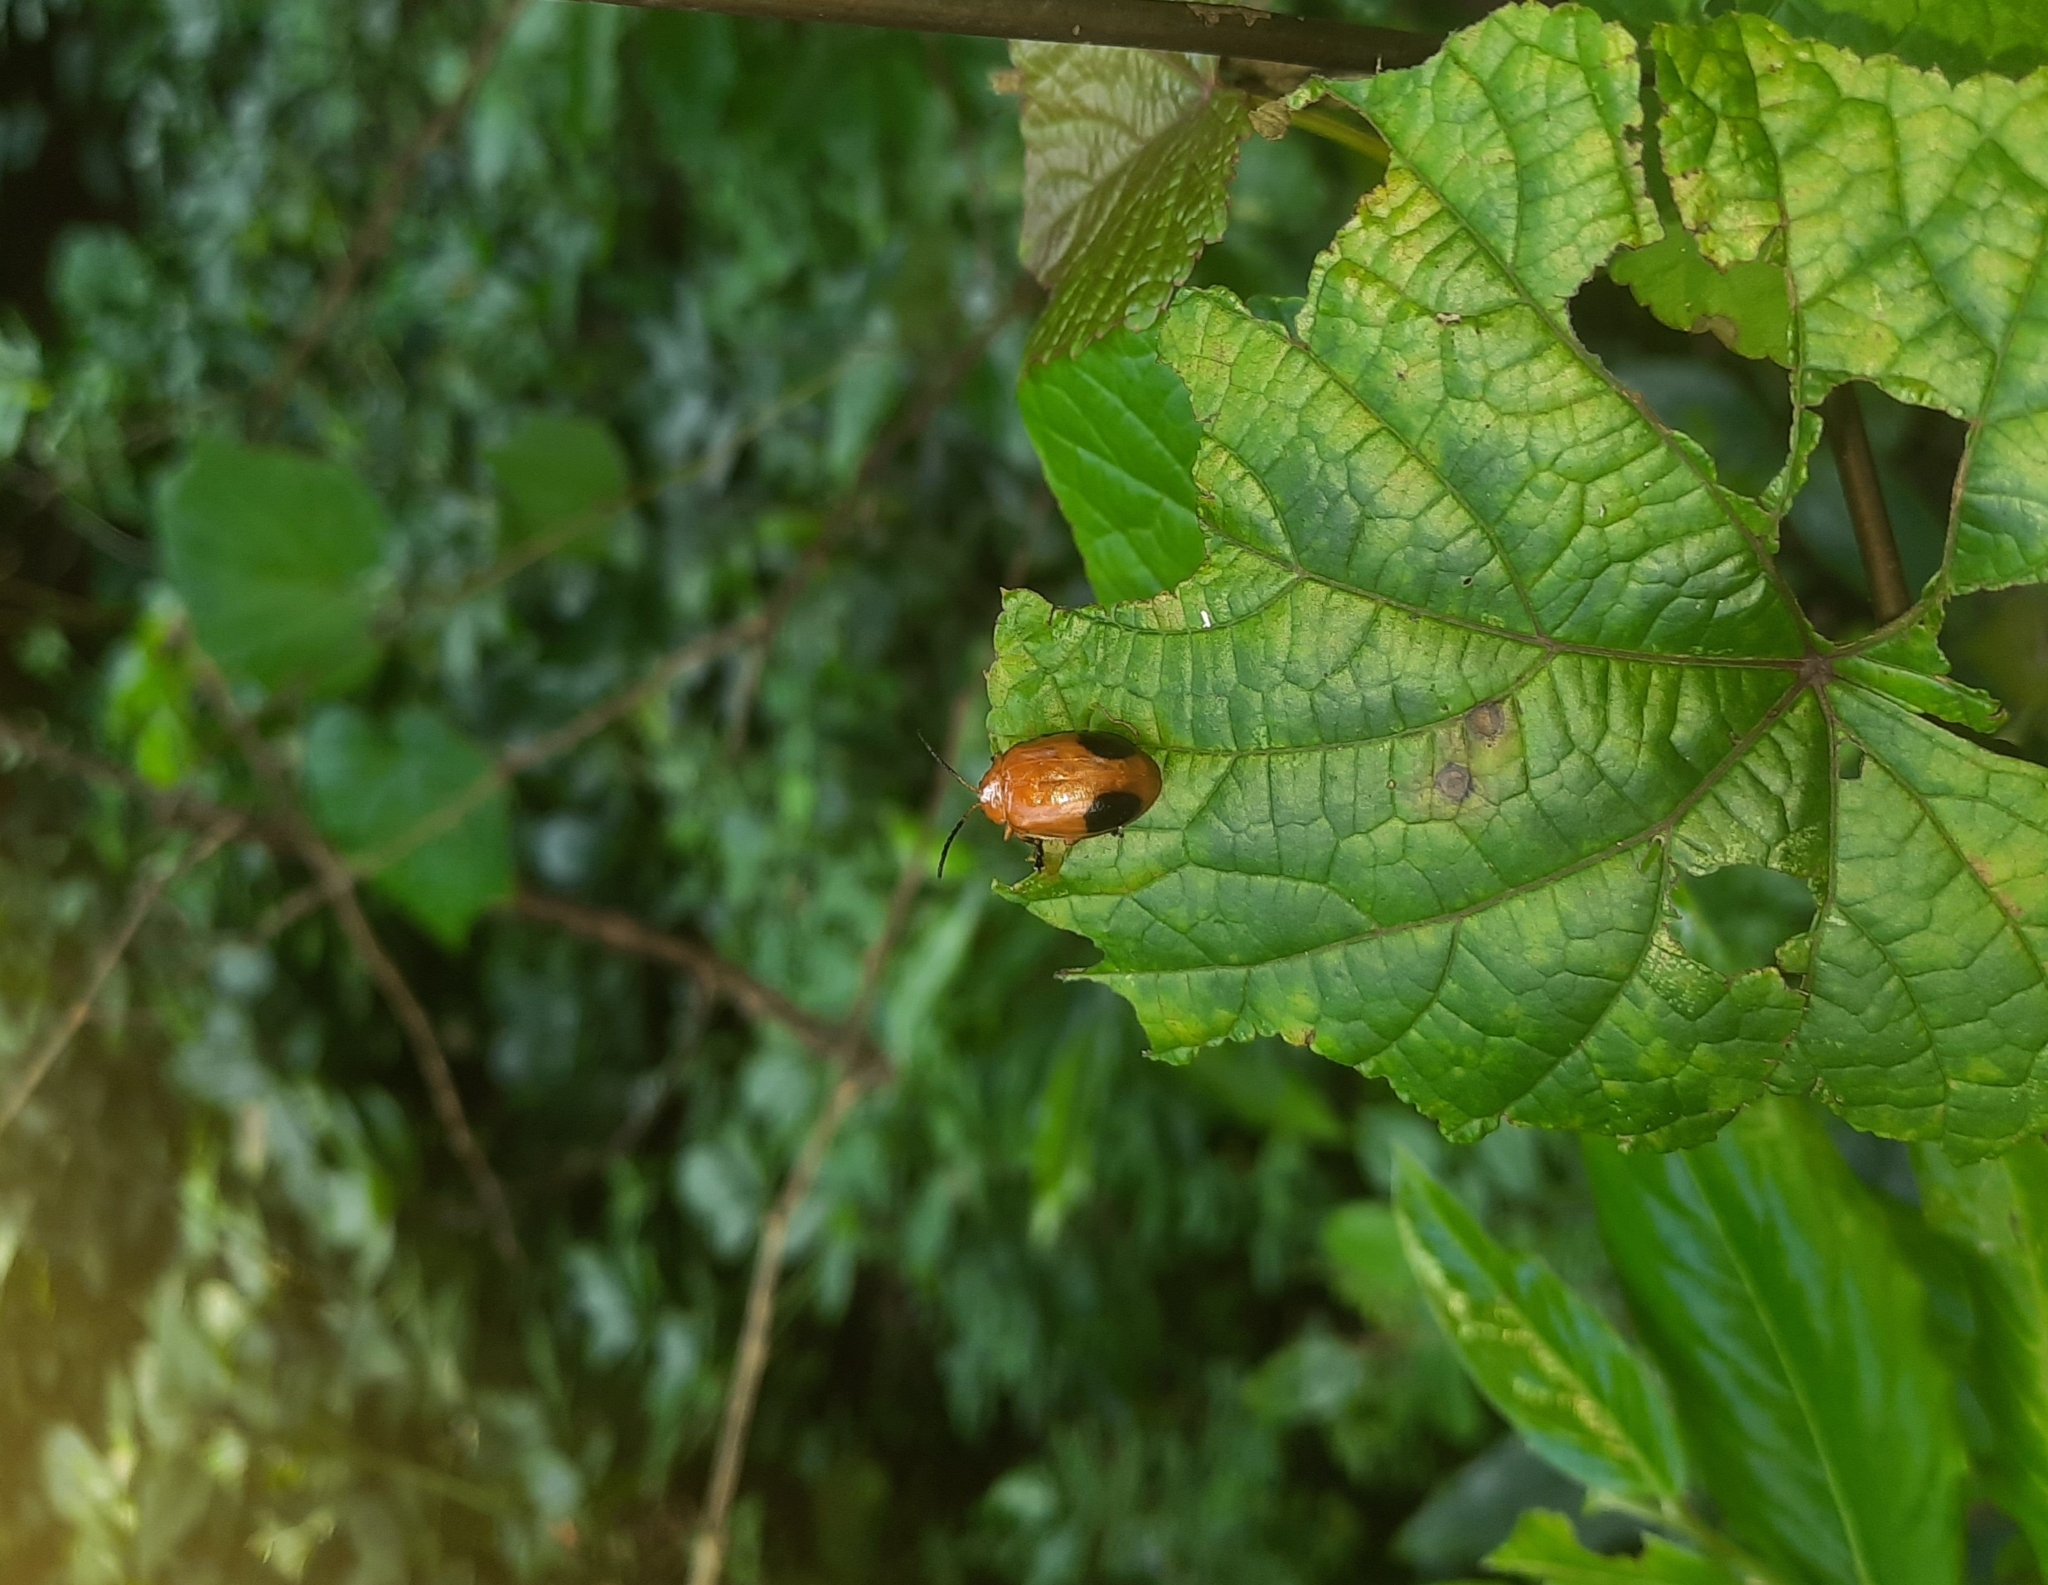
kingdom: Animalia
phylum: Arthropoda
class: Insecta
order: Coleoptera
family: Chrysomelidae
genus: Oides
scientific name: Oides palleata
